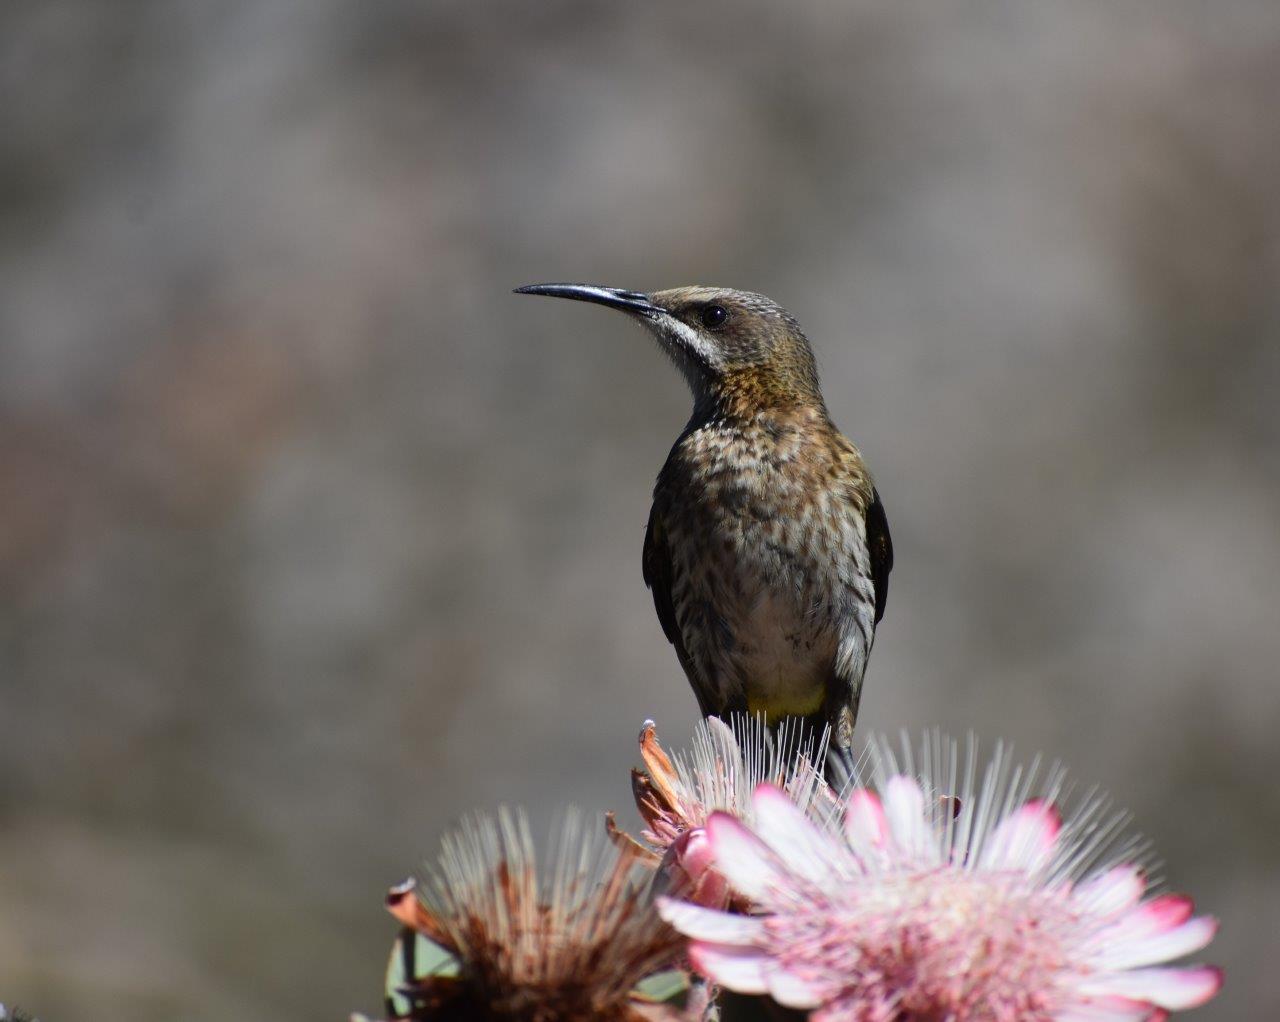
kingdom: Animalia
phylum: Chordata
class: Aves
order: Passeriformes
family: Promeropidae
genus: Promerops
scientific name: Promerops cafer
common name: Cape sugarbird
